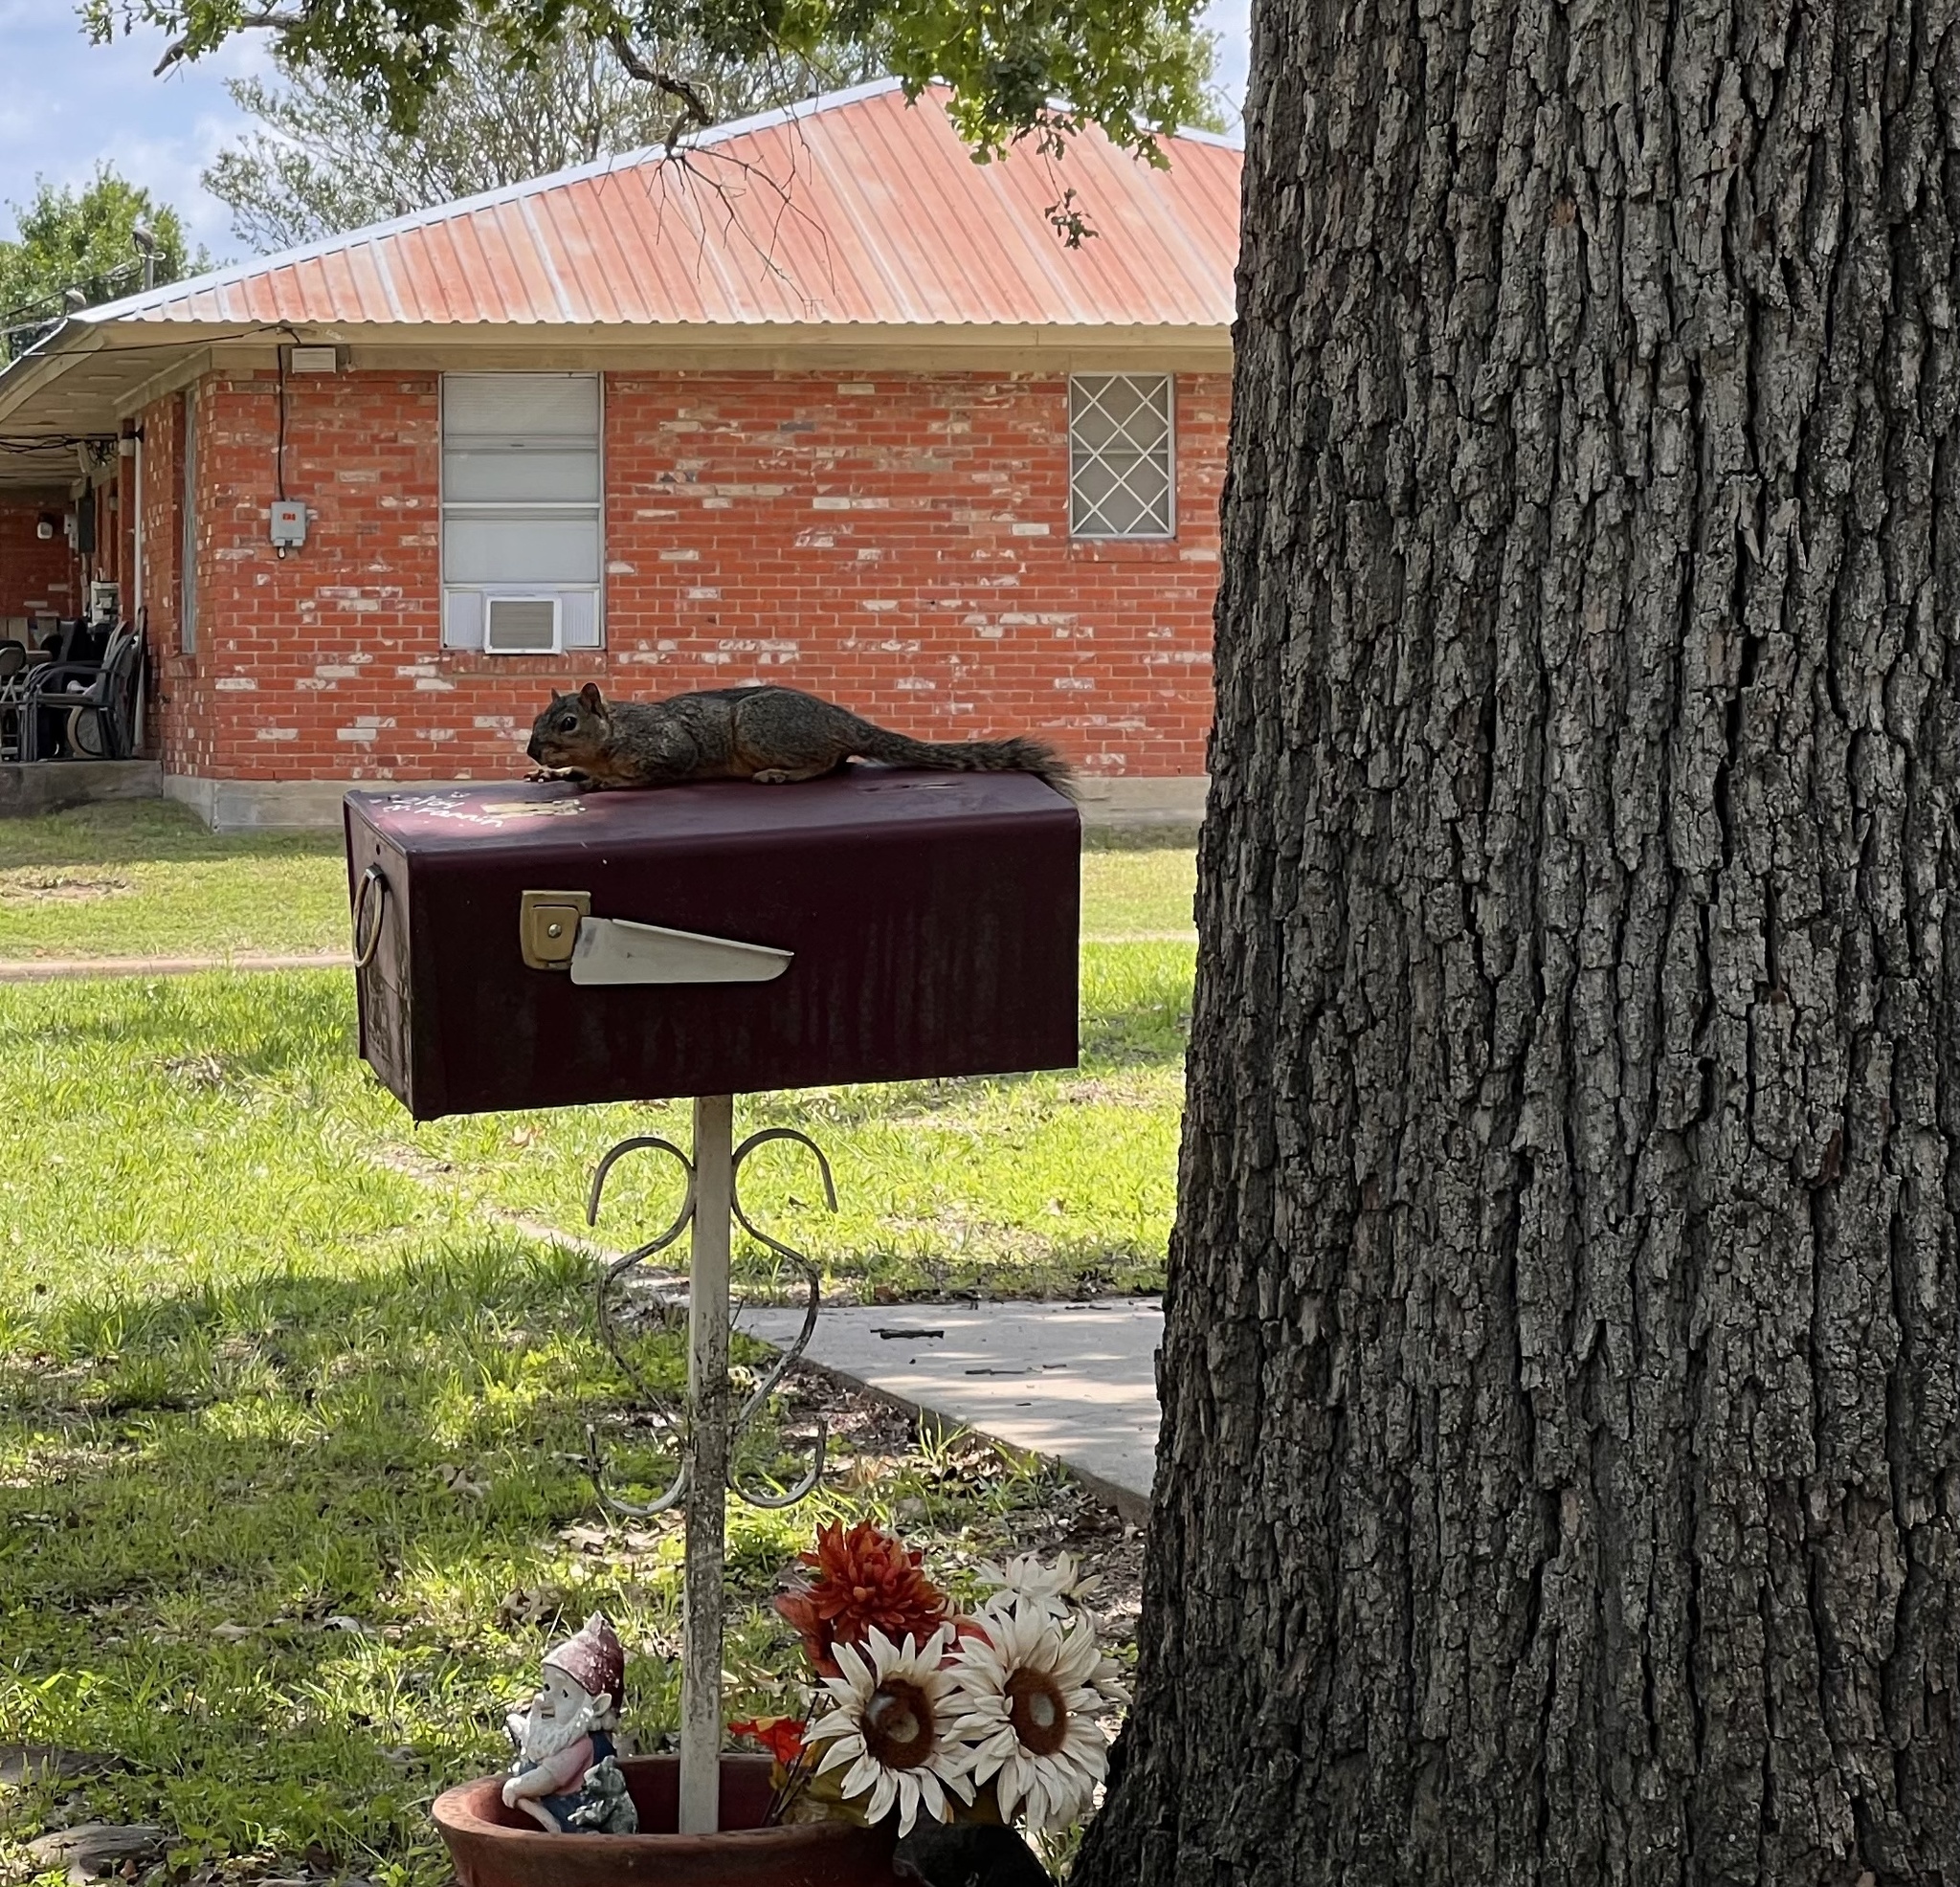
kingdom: Animalia
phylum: Chordata
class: Mammalia
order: Rodentia
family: Sciuridae
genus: Sciurus
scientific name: Sciurus niger
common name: Fox squirrel
